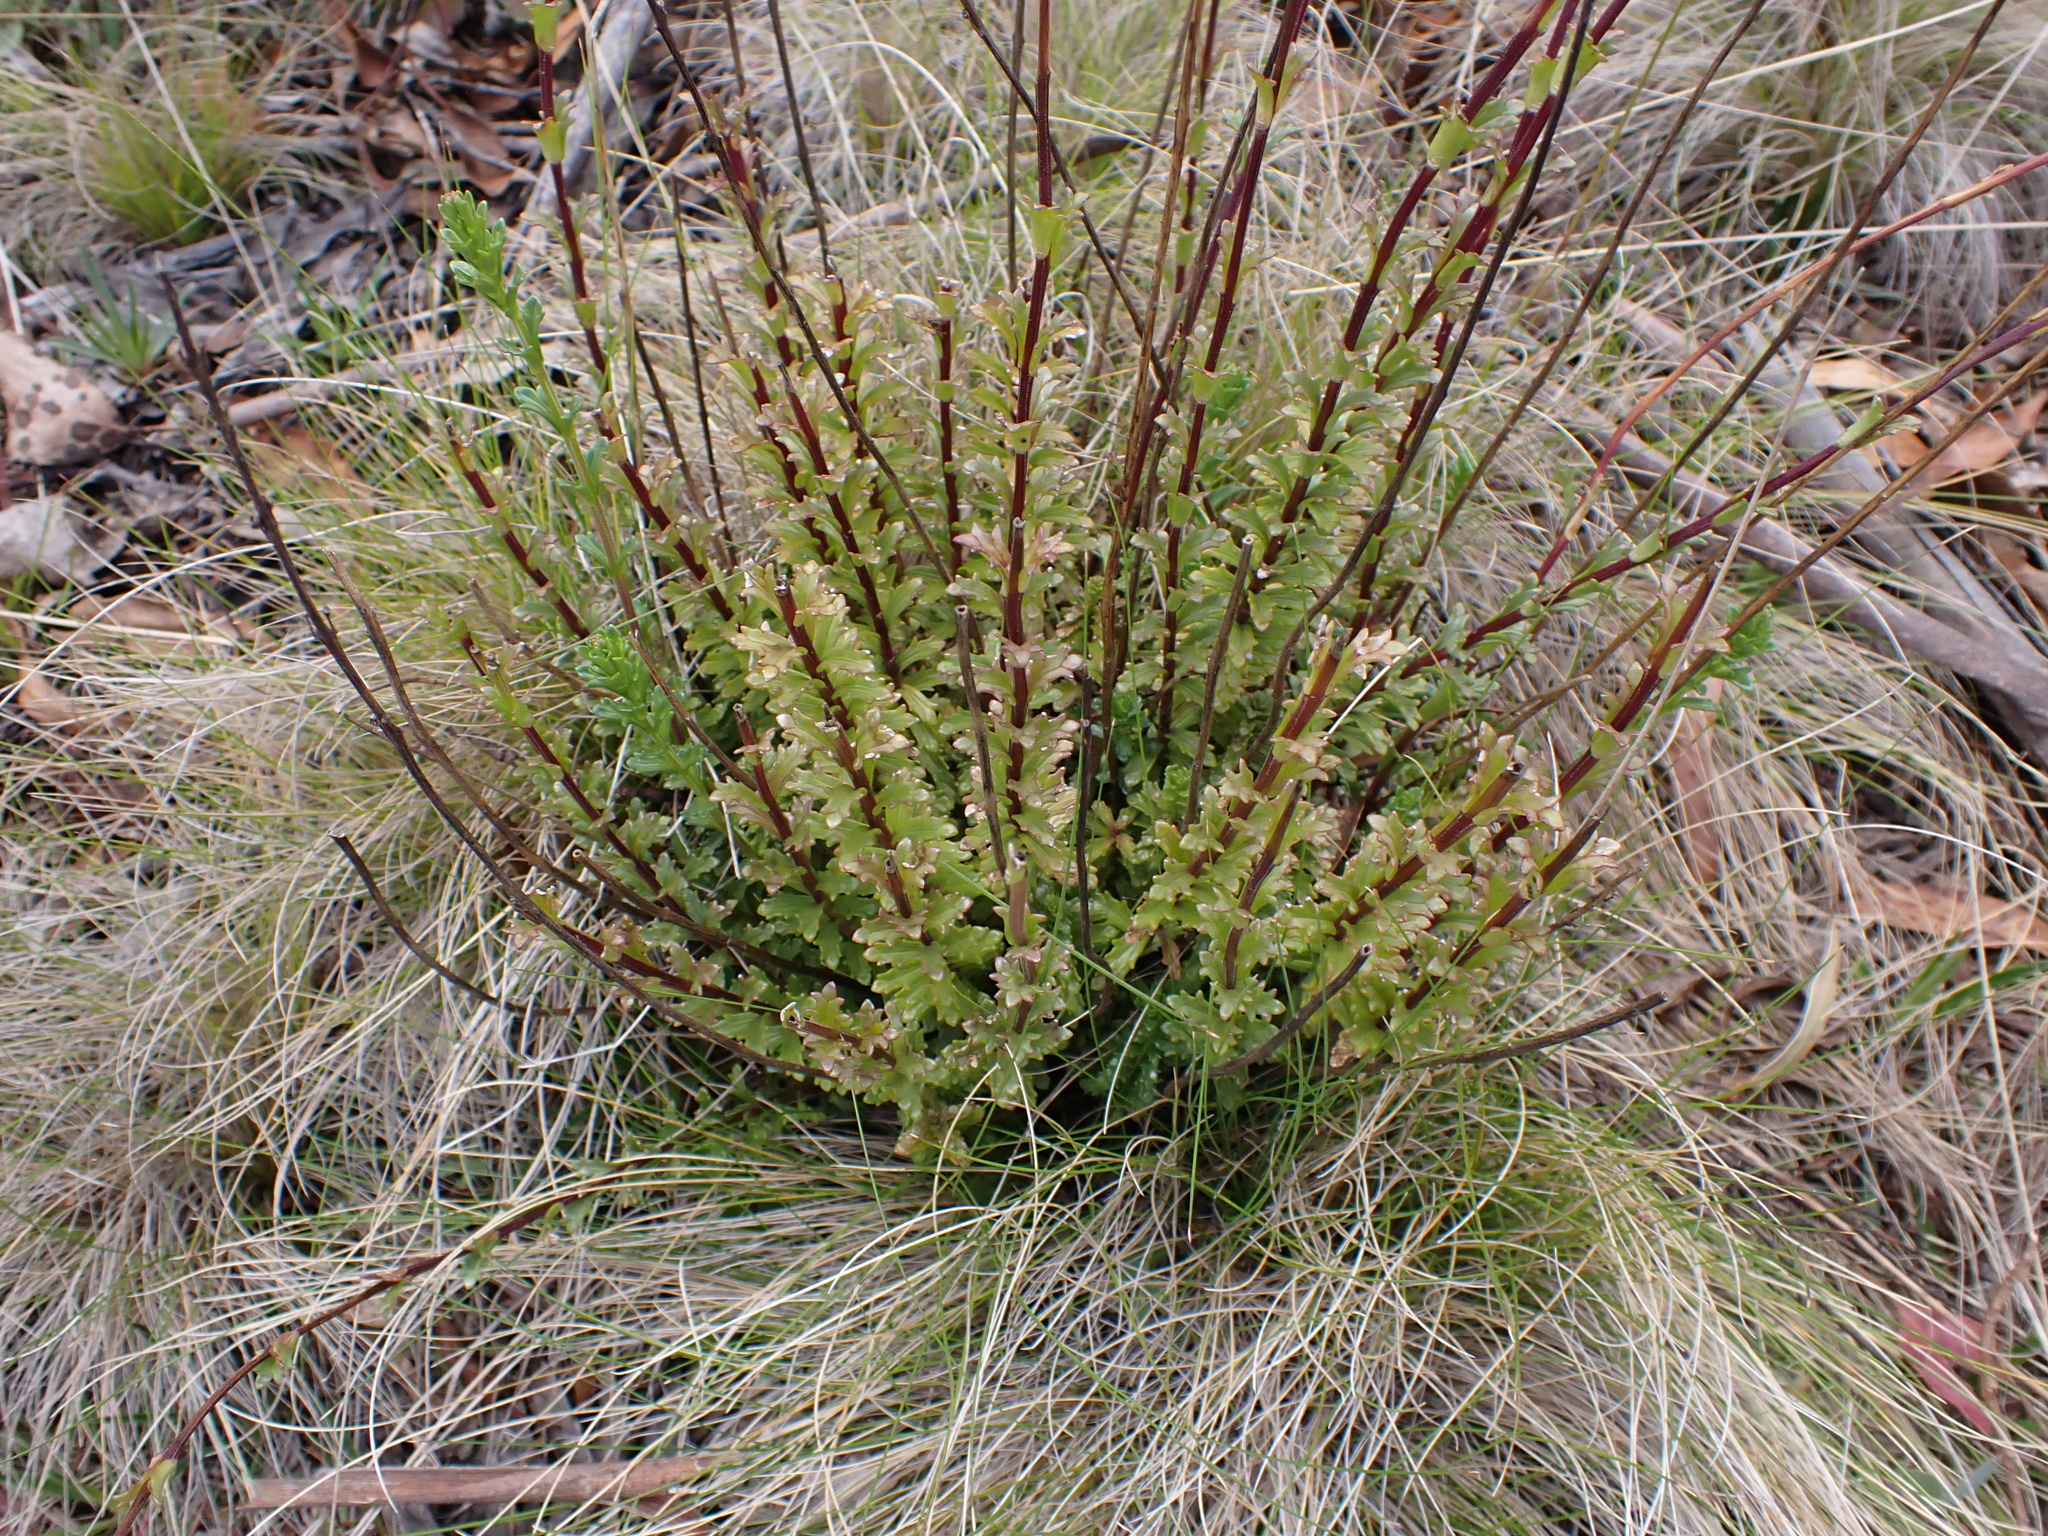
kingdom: Plantae
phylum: Tracheophyta
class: Magnoliopsida
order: Lamiales
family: Orobanchaceae
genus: Euphrasia
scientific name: Euphrasia collina
